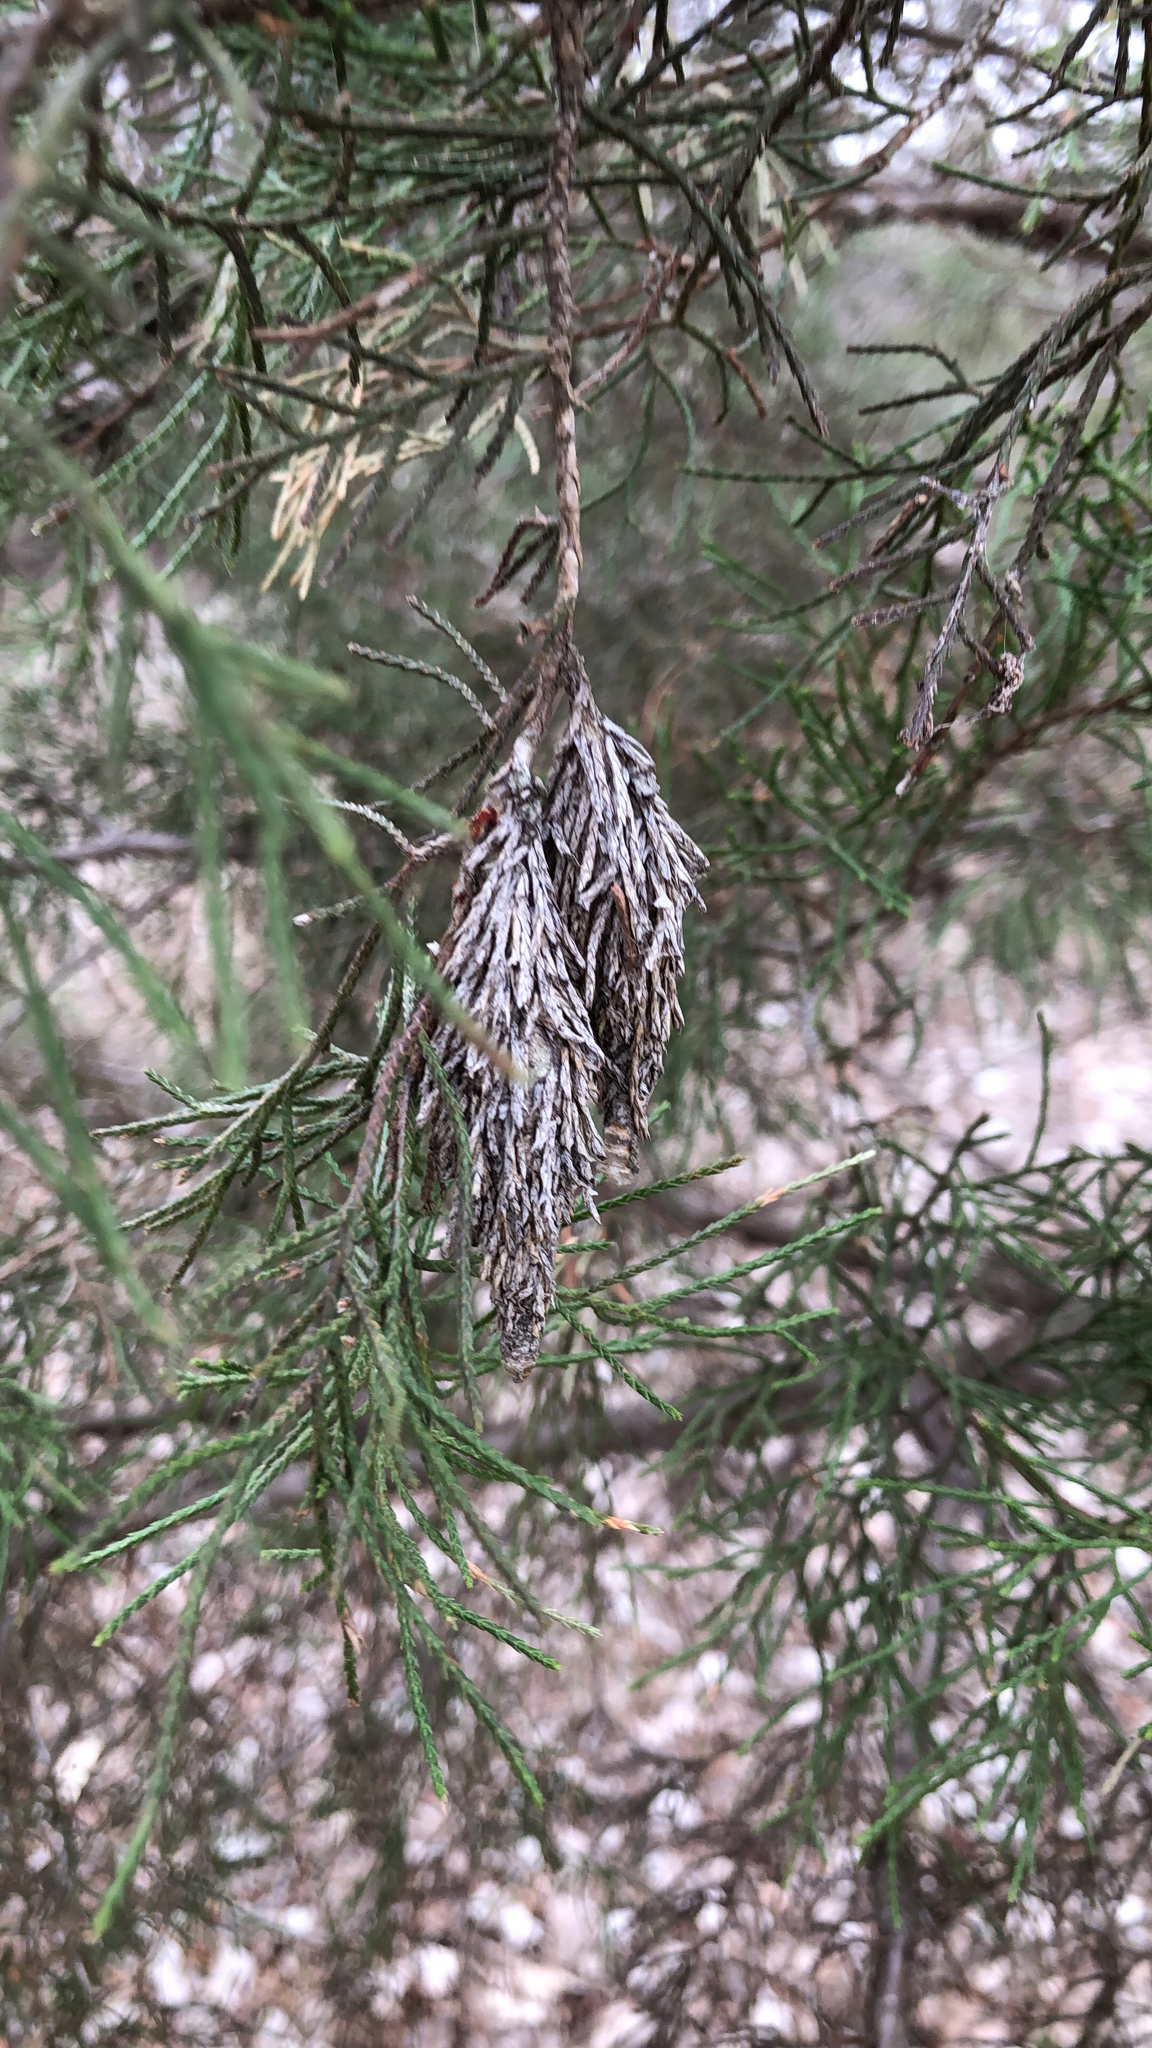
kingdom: Animalia
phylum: Arthropoda
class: Insecta
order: Lepidoptera
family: Psychidae
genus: Thyridopteryx
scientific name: Thyridopteryx ephemeraeformis
